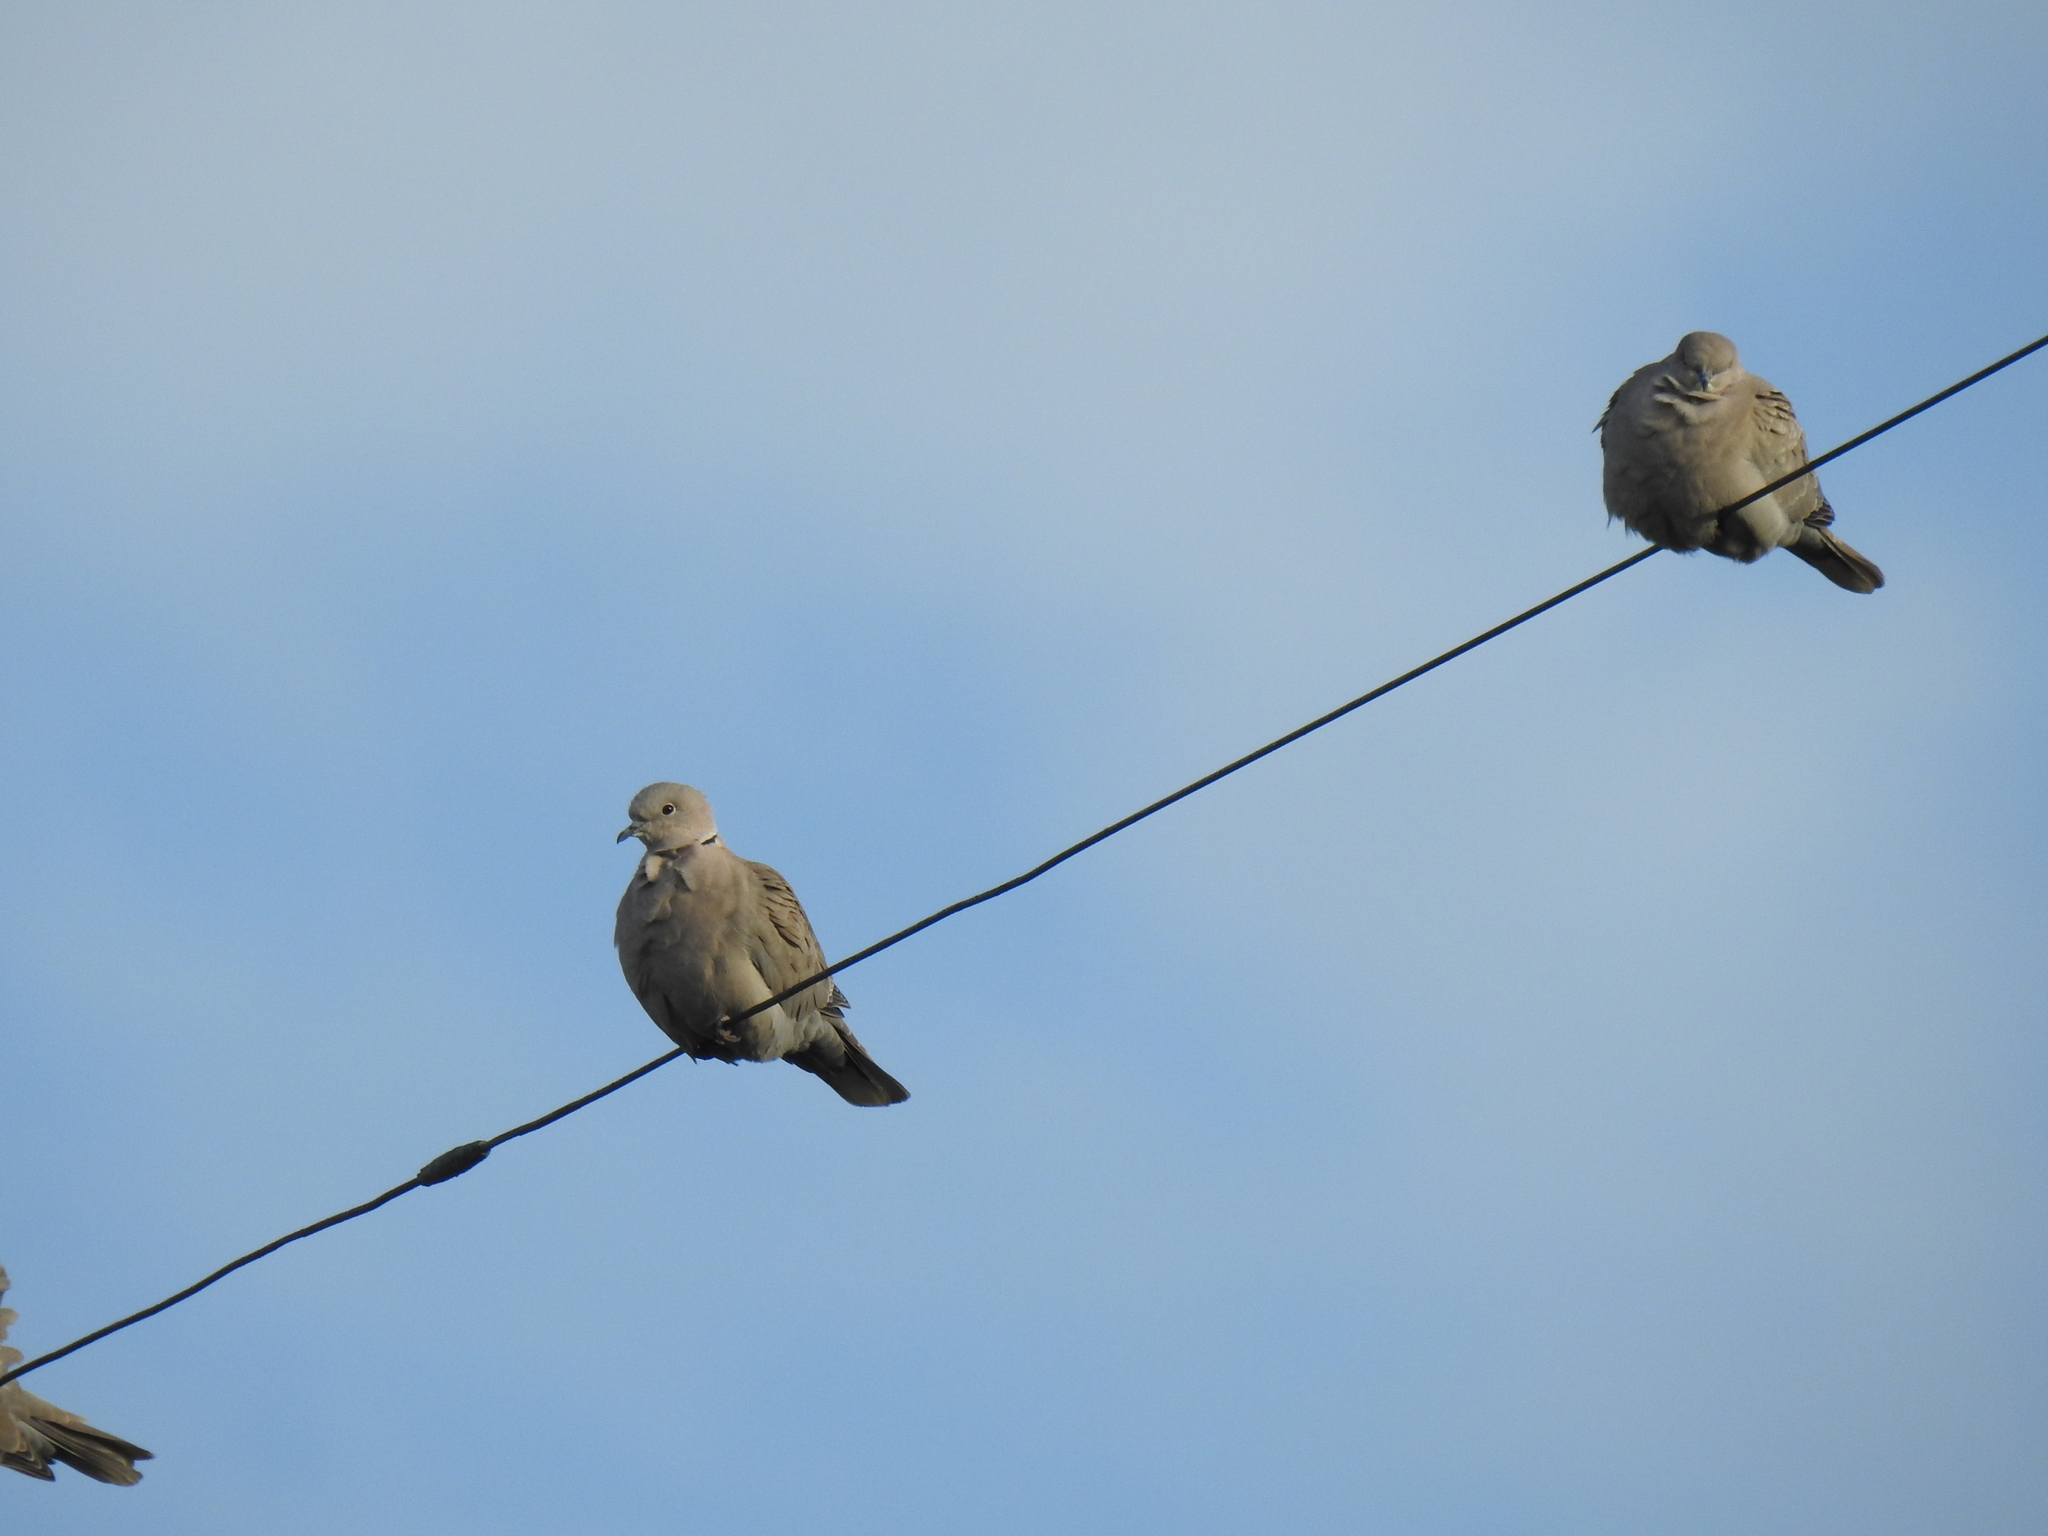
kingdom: Animalia
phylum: Chordata
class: Aves
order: Columbiformes
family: Columbidae
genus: Streptopelia
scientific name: Streptopelia decaocto
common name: Eurasian collared dove
